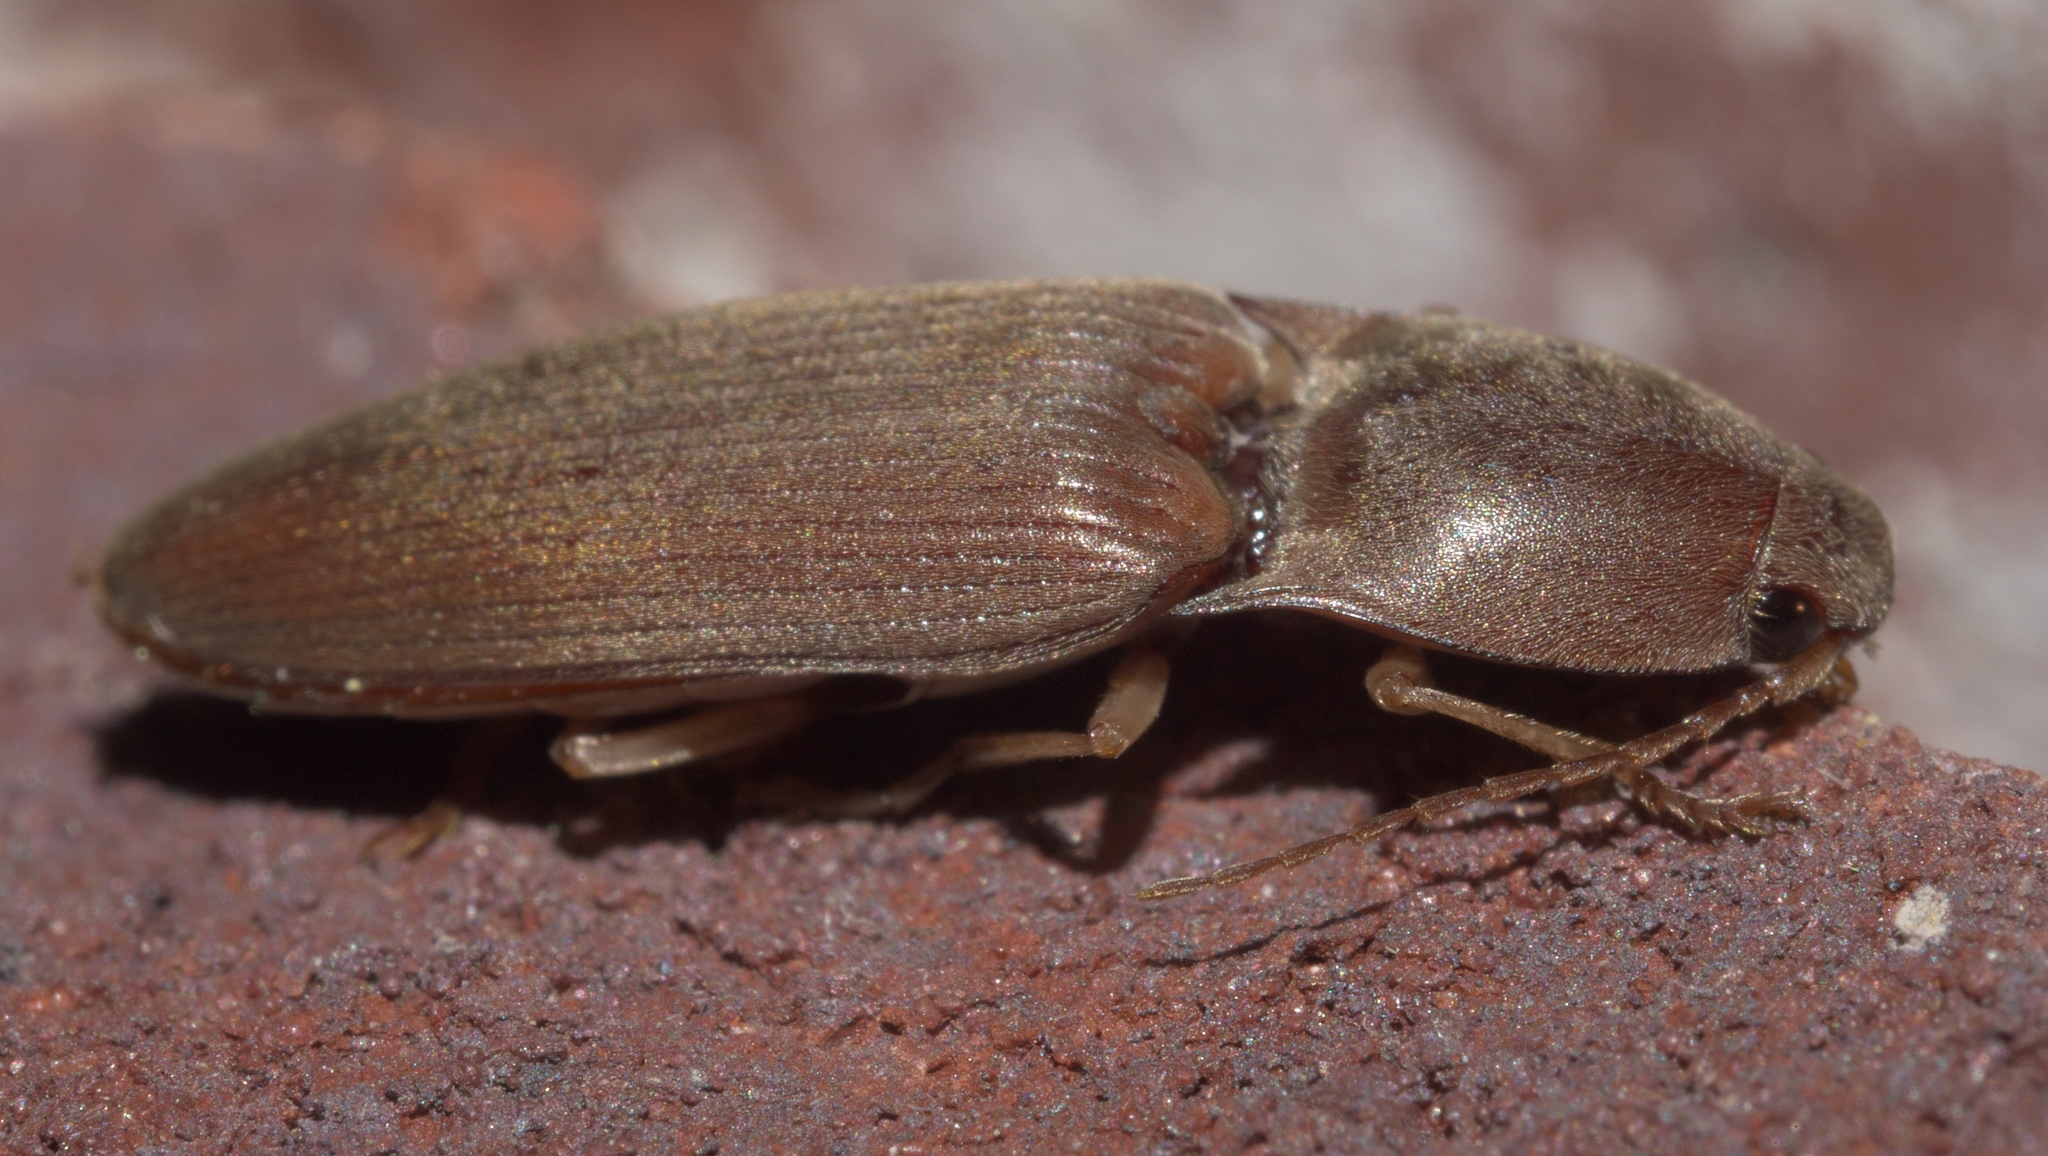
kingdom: Animalia
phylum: Arthropoda
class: Insecta
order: Coleoptera
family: Elateridae
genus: Monocrepidius
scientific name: Monocrepidius lividus
